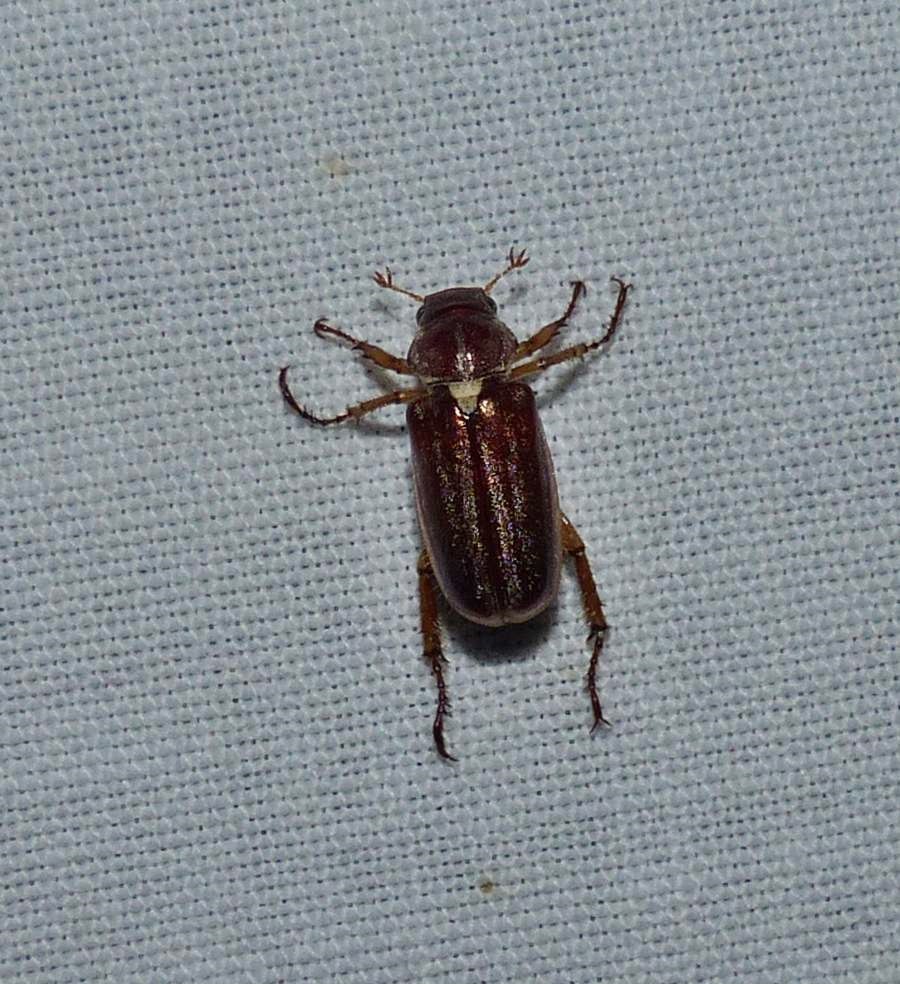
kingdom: Animalia
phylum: Arthropoda
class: Insecta
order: Coleoptera
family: Scarabaeidae
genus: Dichelonyx
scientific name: Dichelonyx albicollis
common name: White-necked pine-beetle
